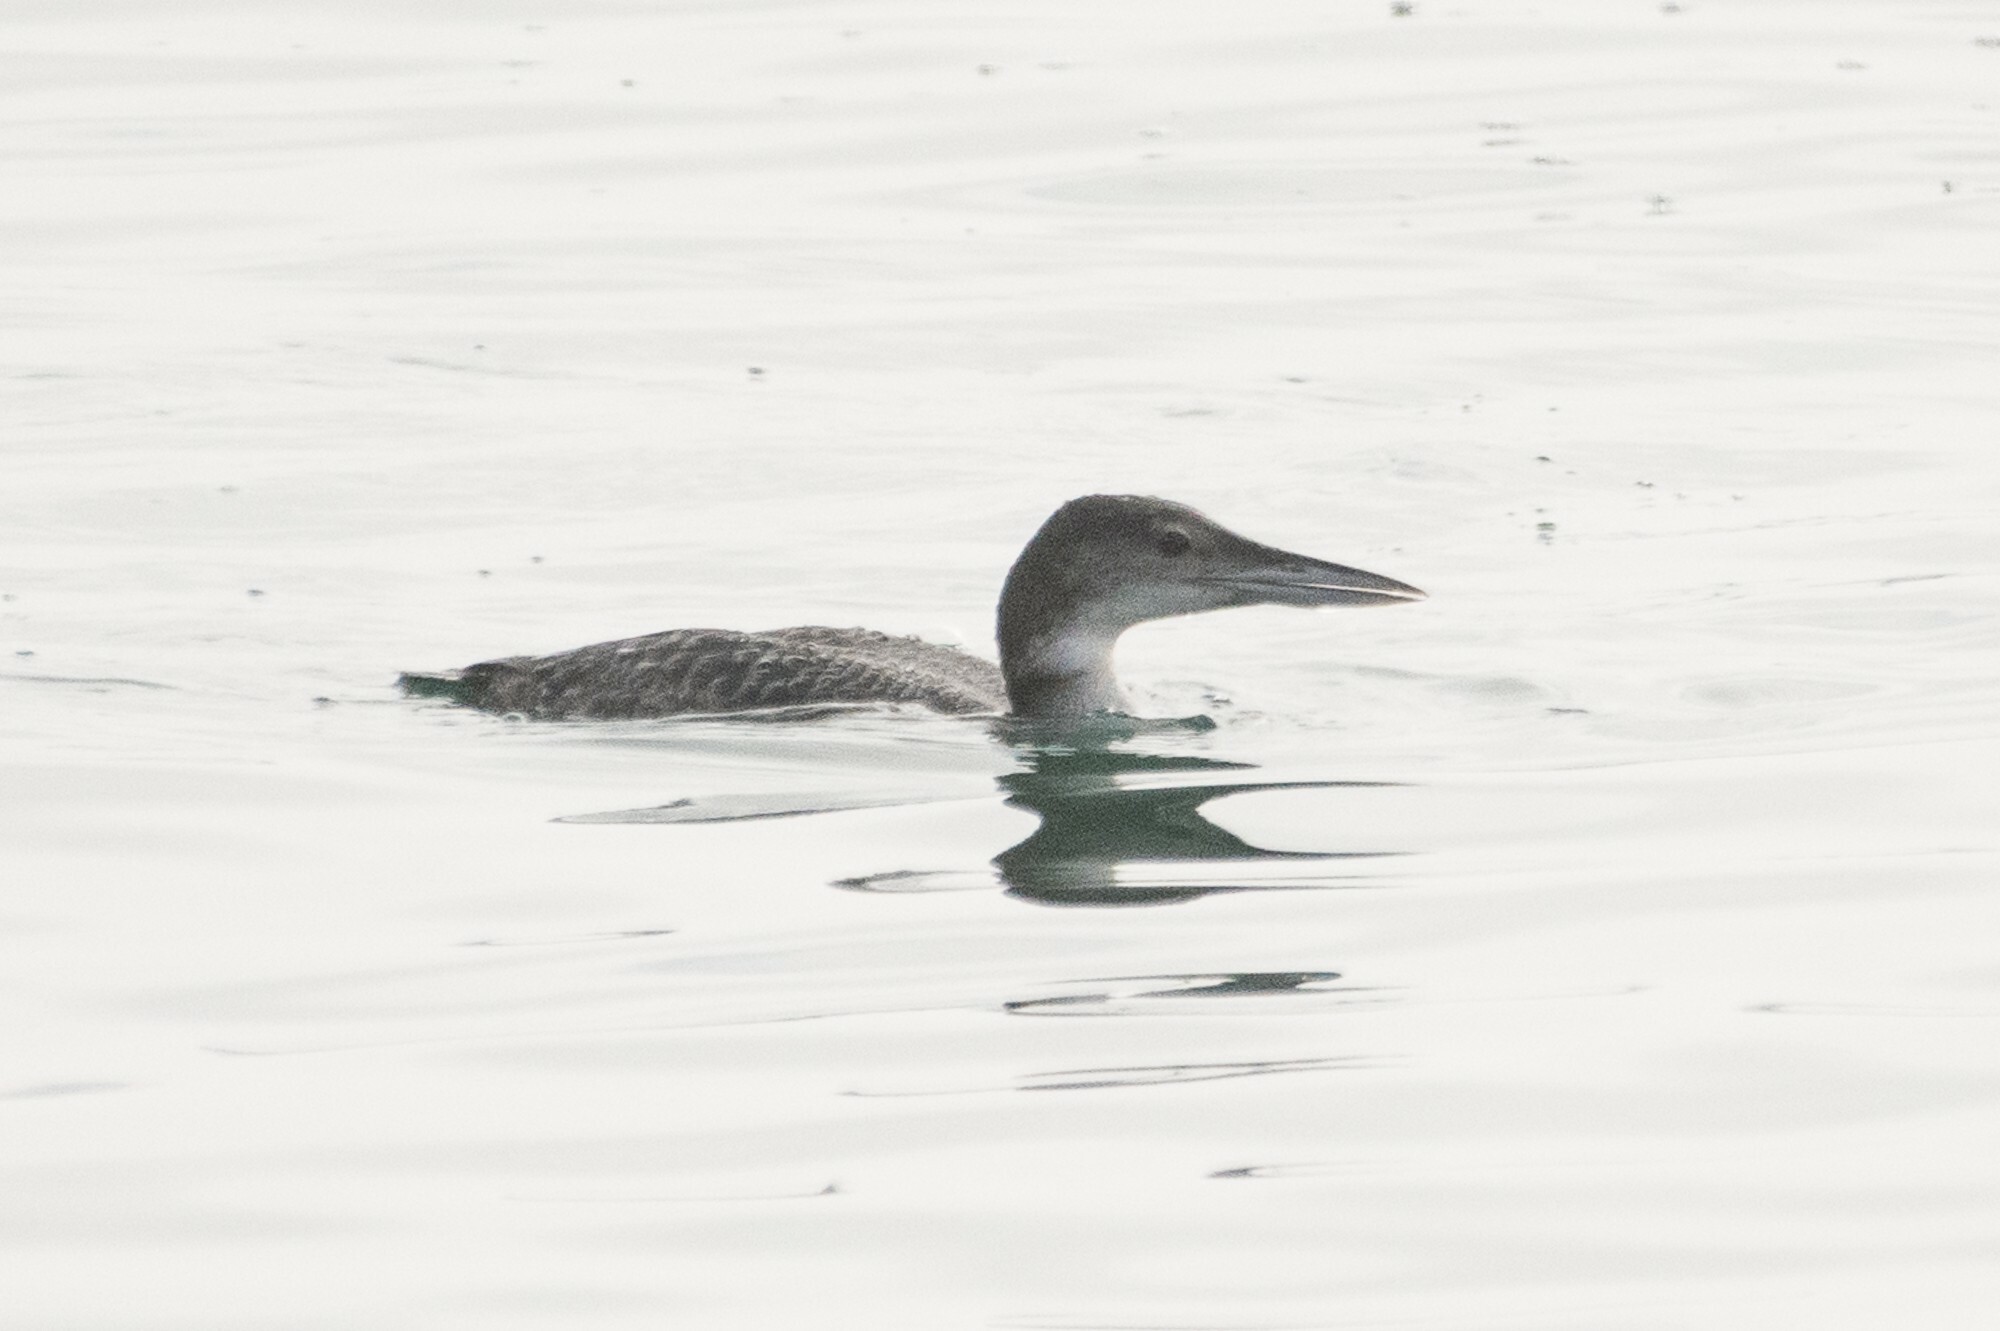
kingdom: Animalia
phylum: Chordata
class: Aves
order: Gaviiformes
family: Gaviidae
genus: Gavia
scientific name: Gavia immer
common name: Common loon
